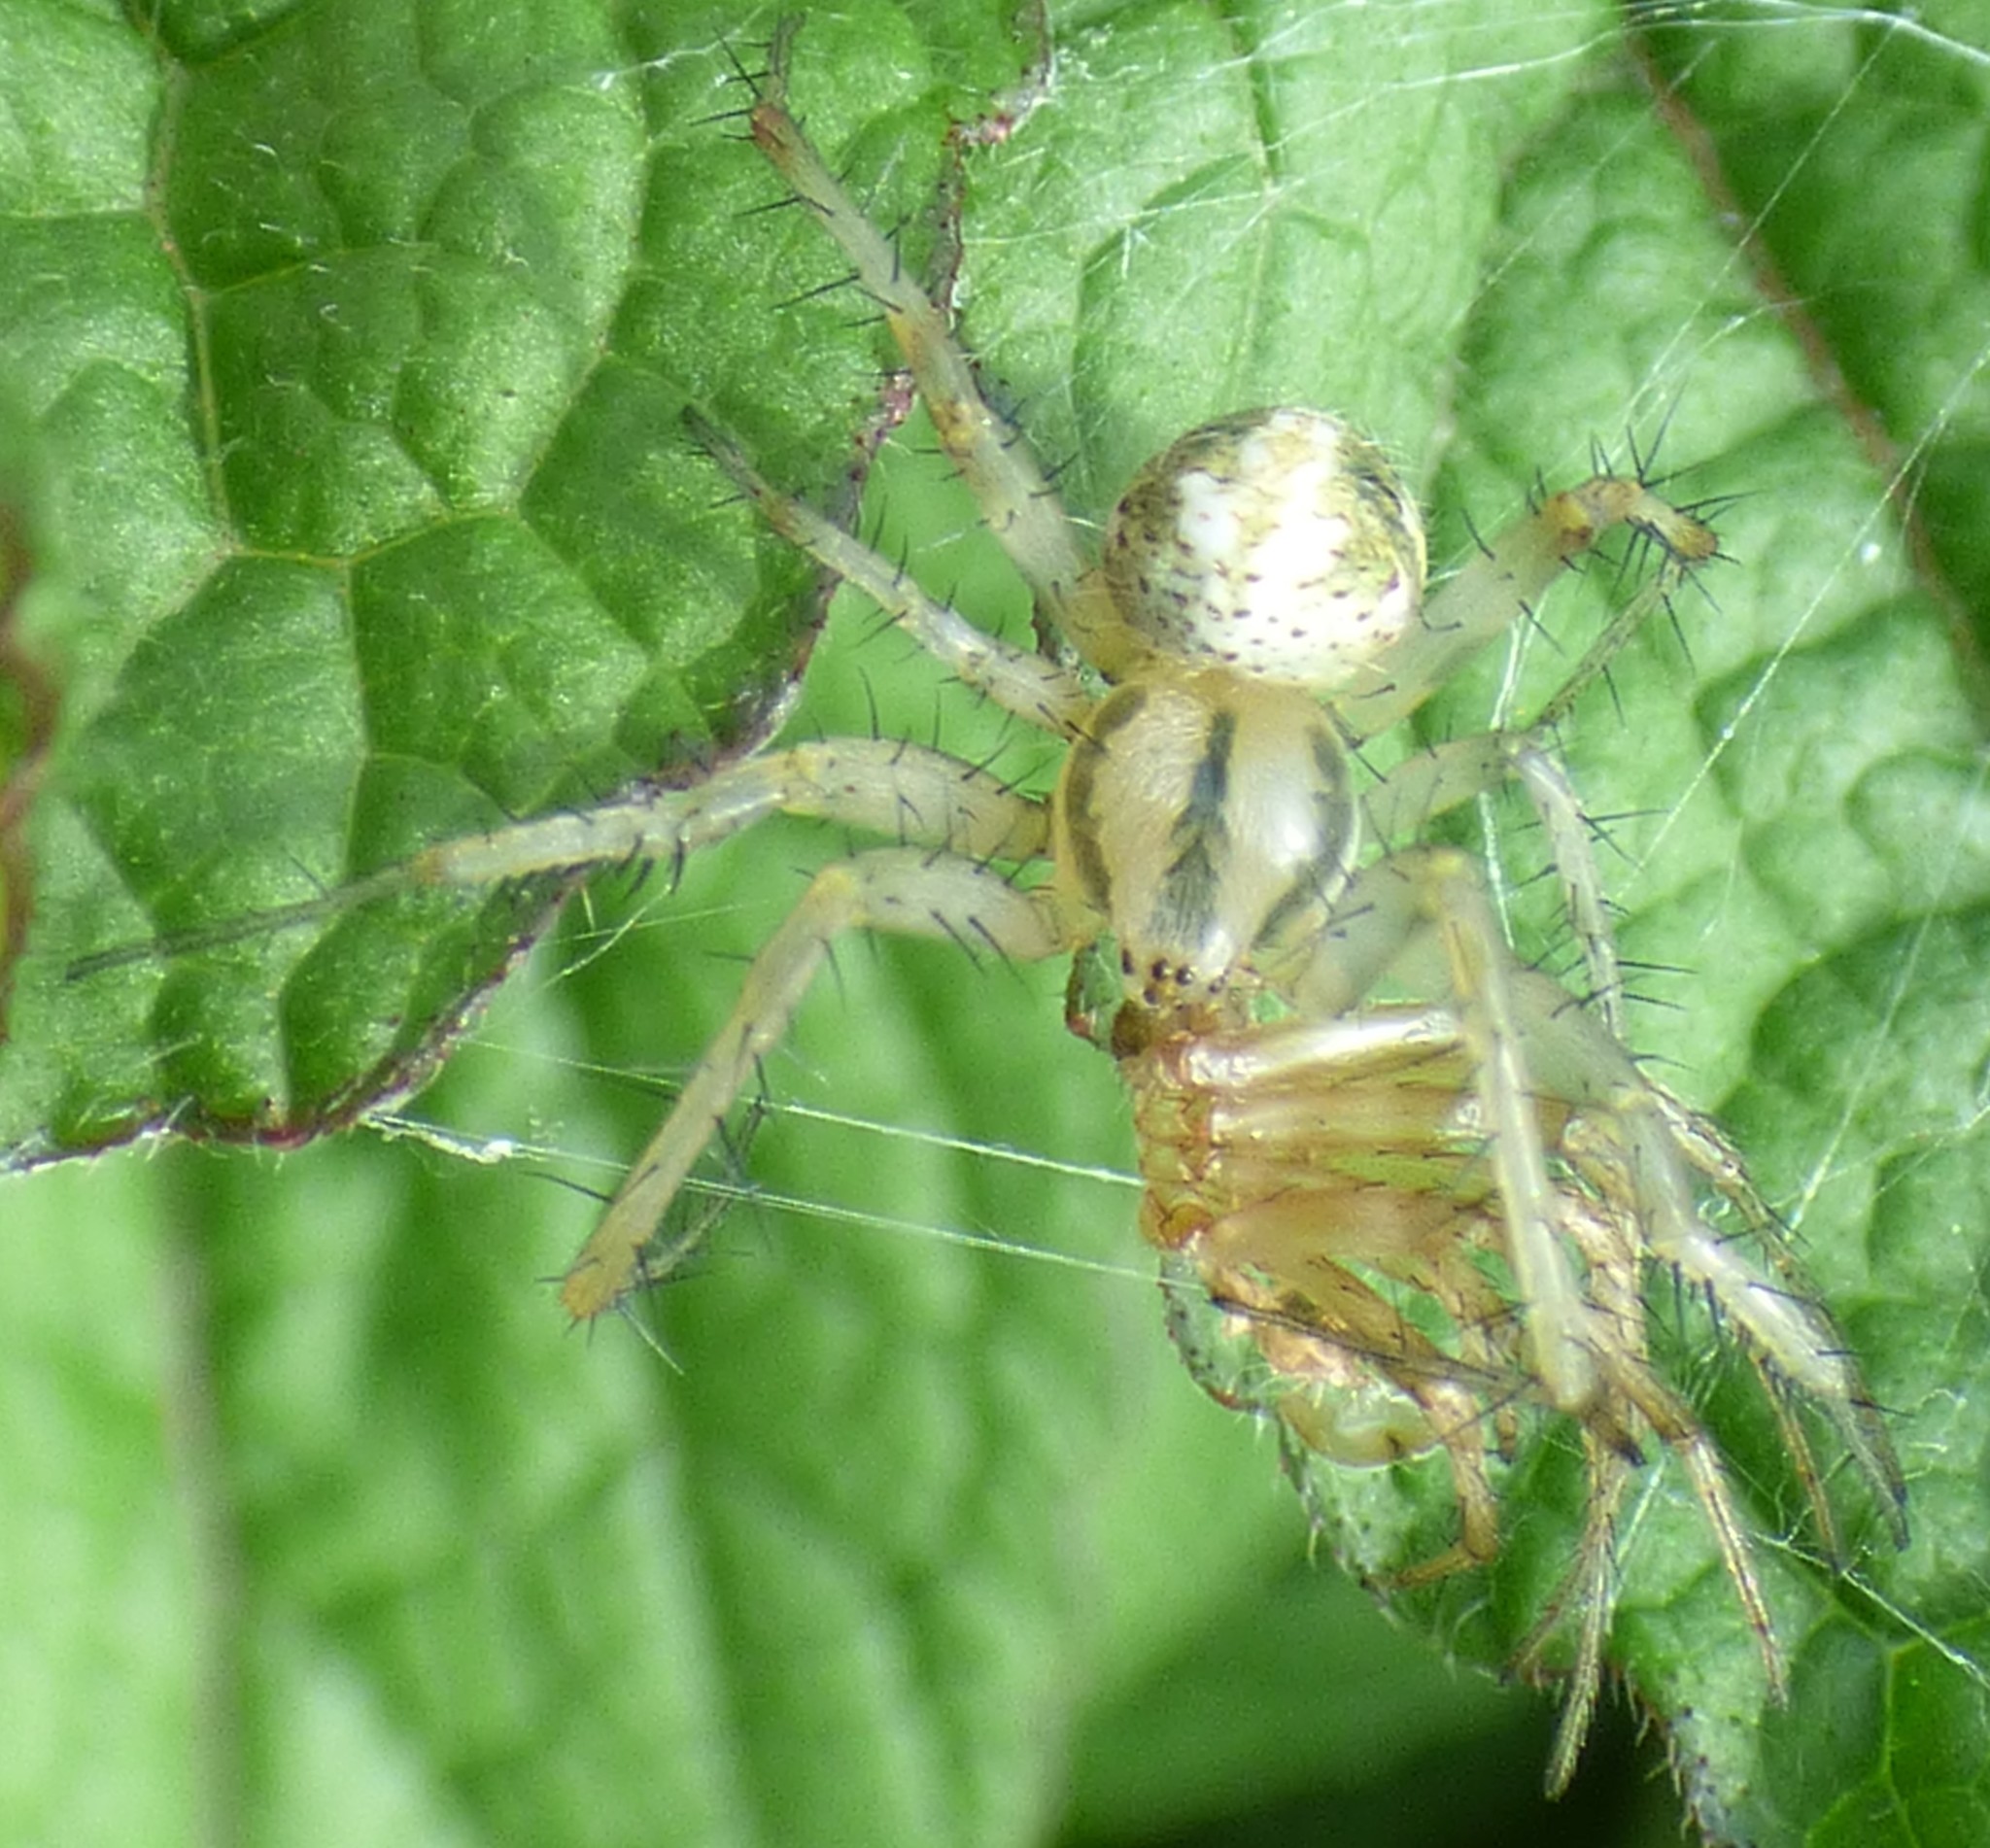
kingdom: Animalia
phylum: Arthropoda
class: Arachnida
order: Araneae
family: Araneidae
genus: Neoscona
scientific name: Neoscona arabesca
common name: Orb weavers
